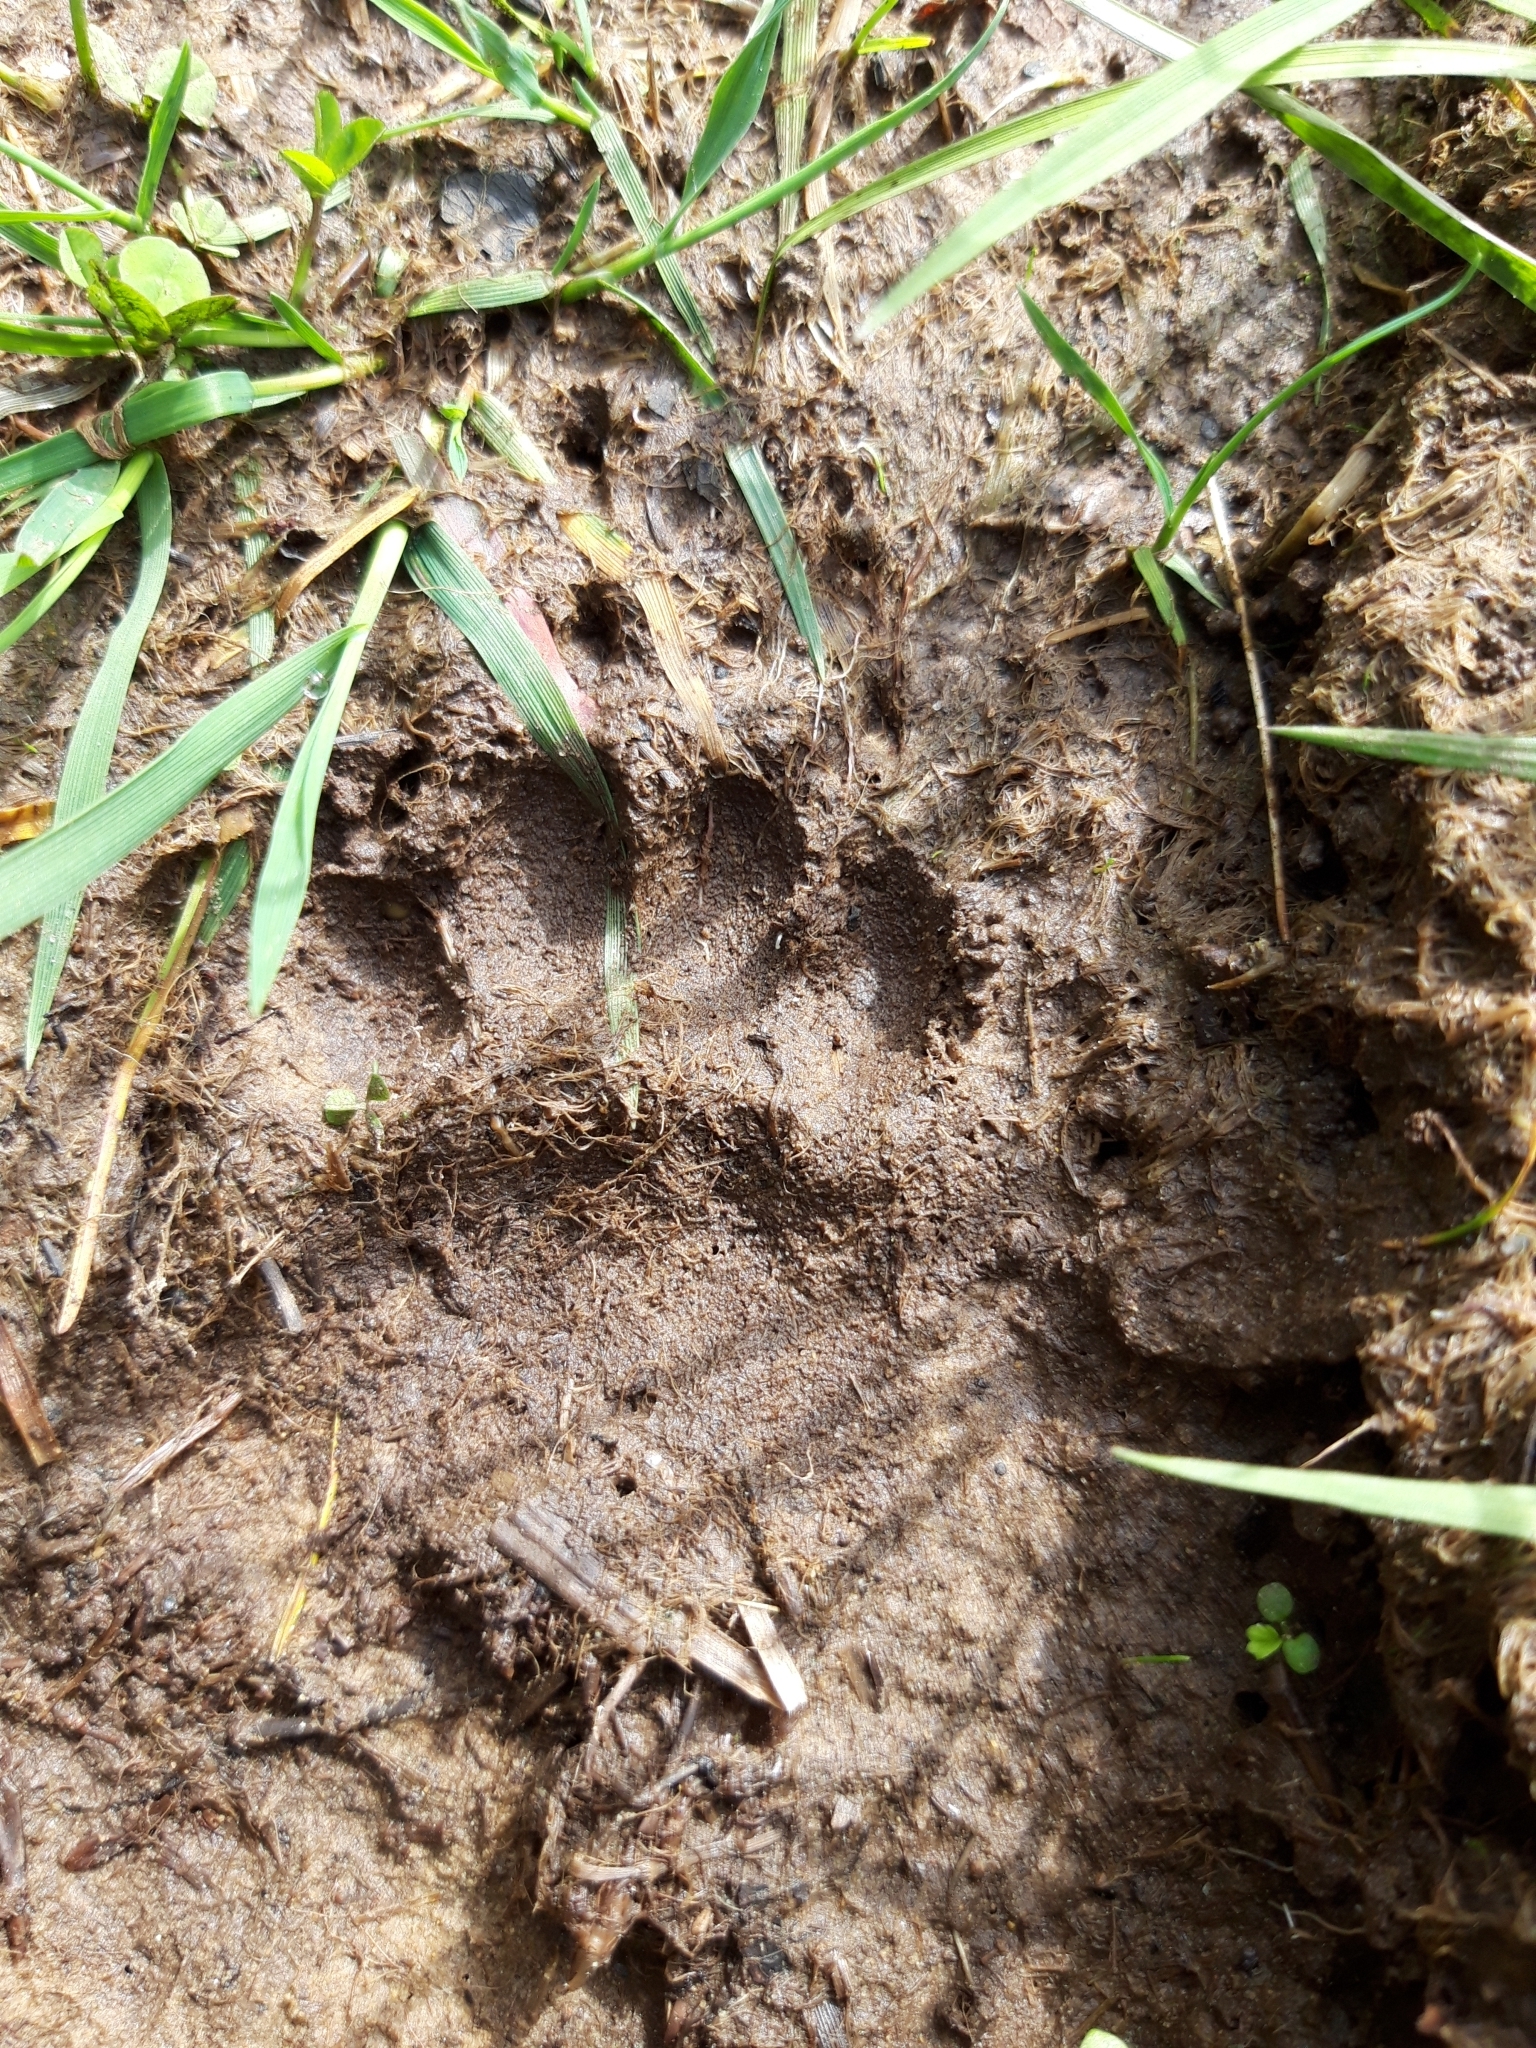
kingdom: Animalia
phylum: Chordata
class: Mammalia
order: Carnivora
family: Mustelidae
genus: Meles
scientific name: Meles meles
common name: Eurasian badger
